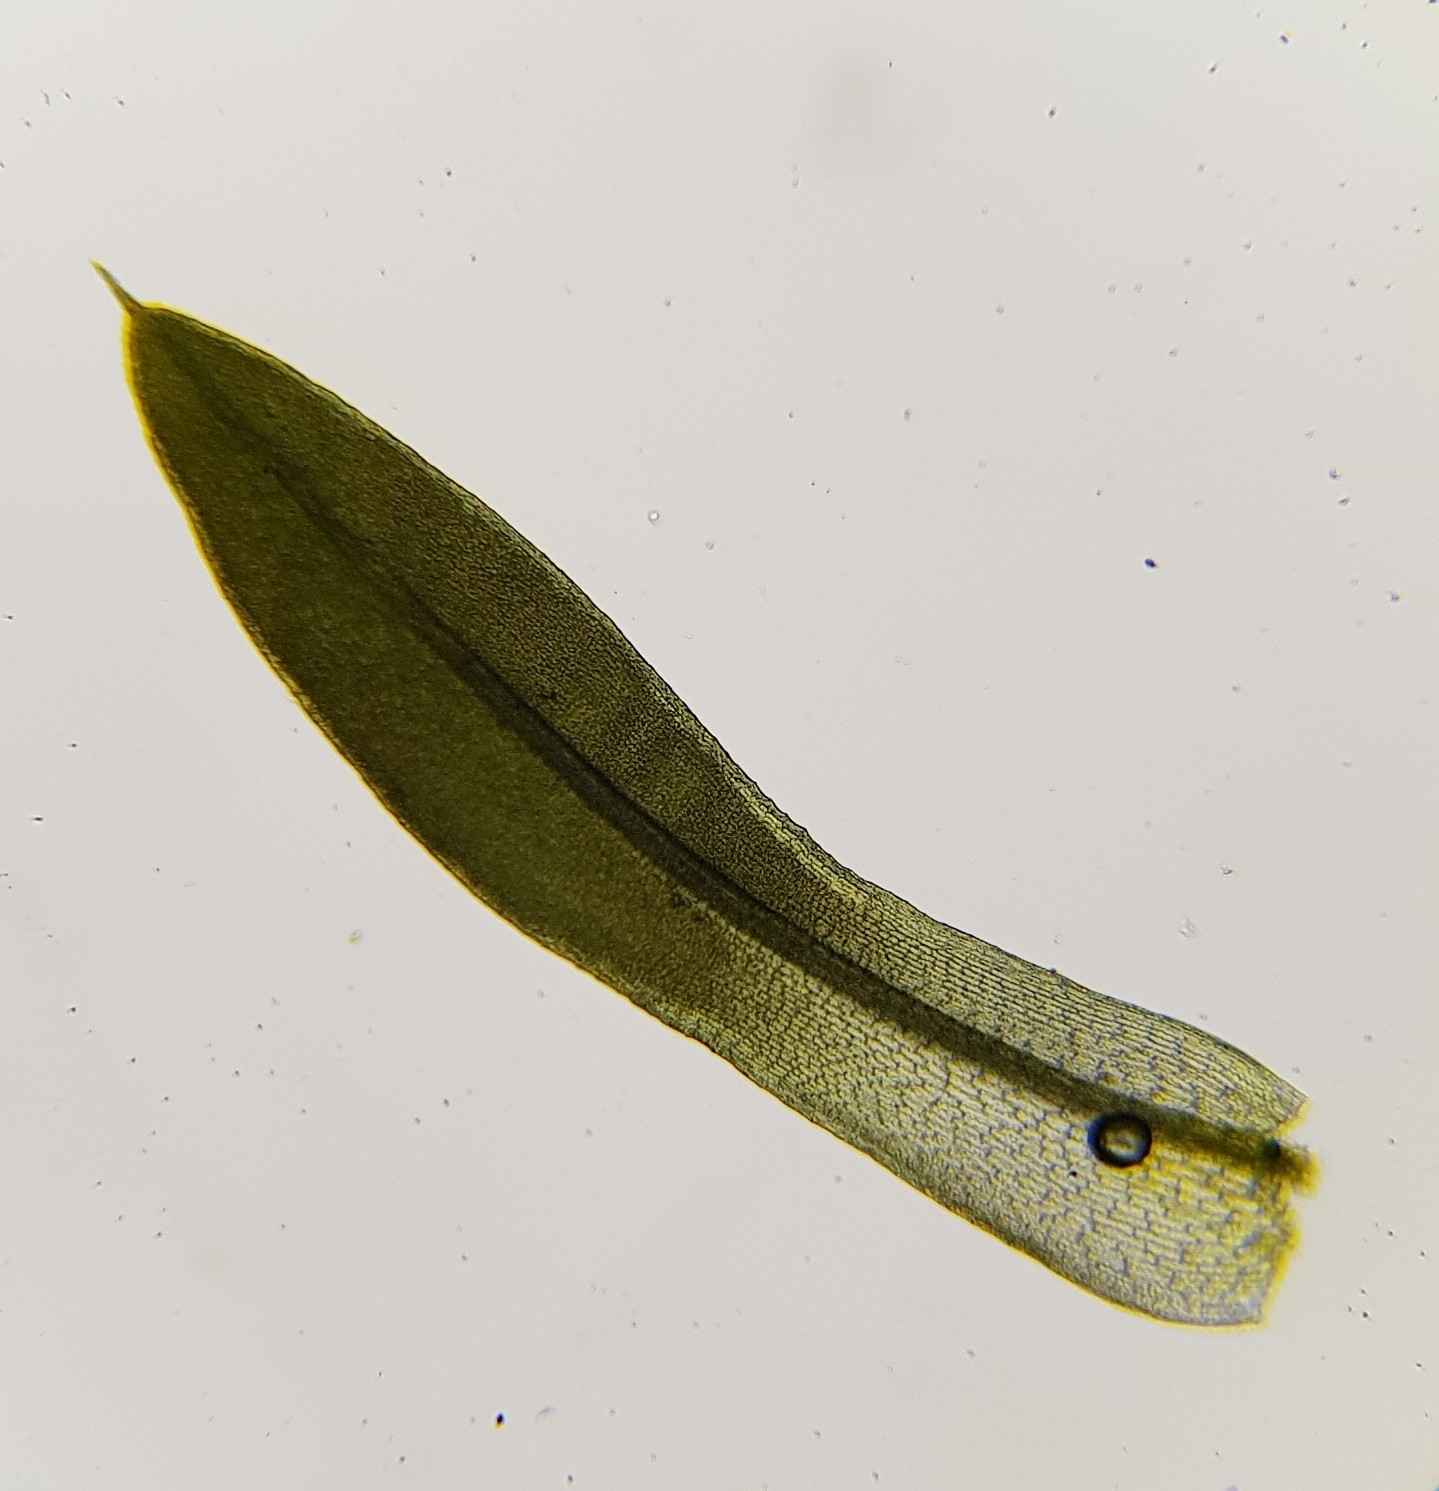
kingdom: Plantae
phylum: Bryophyta
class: Bryopsida
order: Pottiales
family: Pottiaceae
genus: Tortula
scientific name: Tortula marginata
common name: Bordered screw-moss
